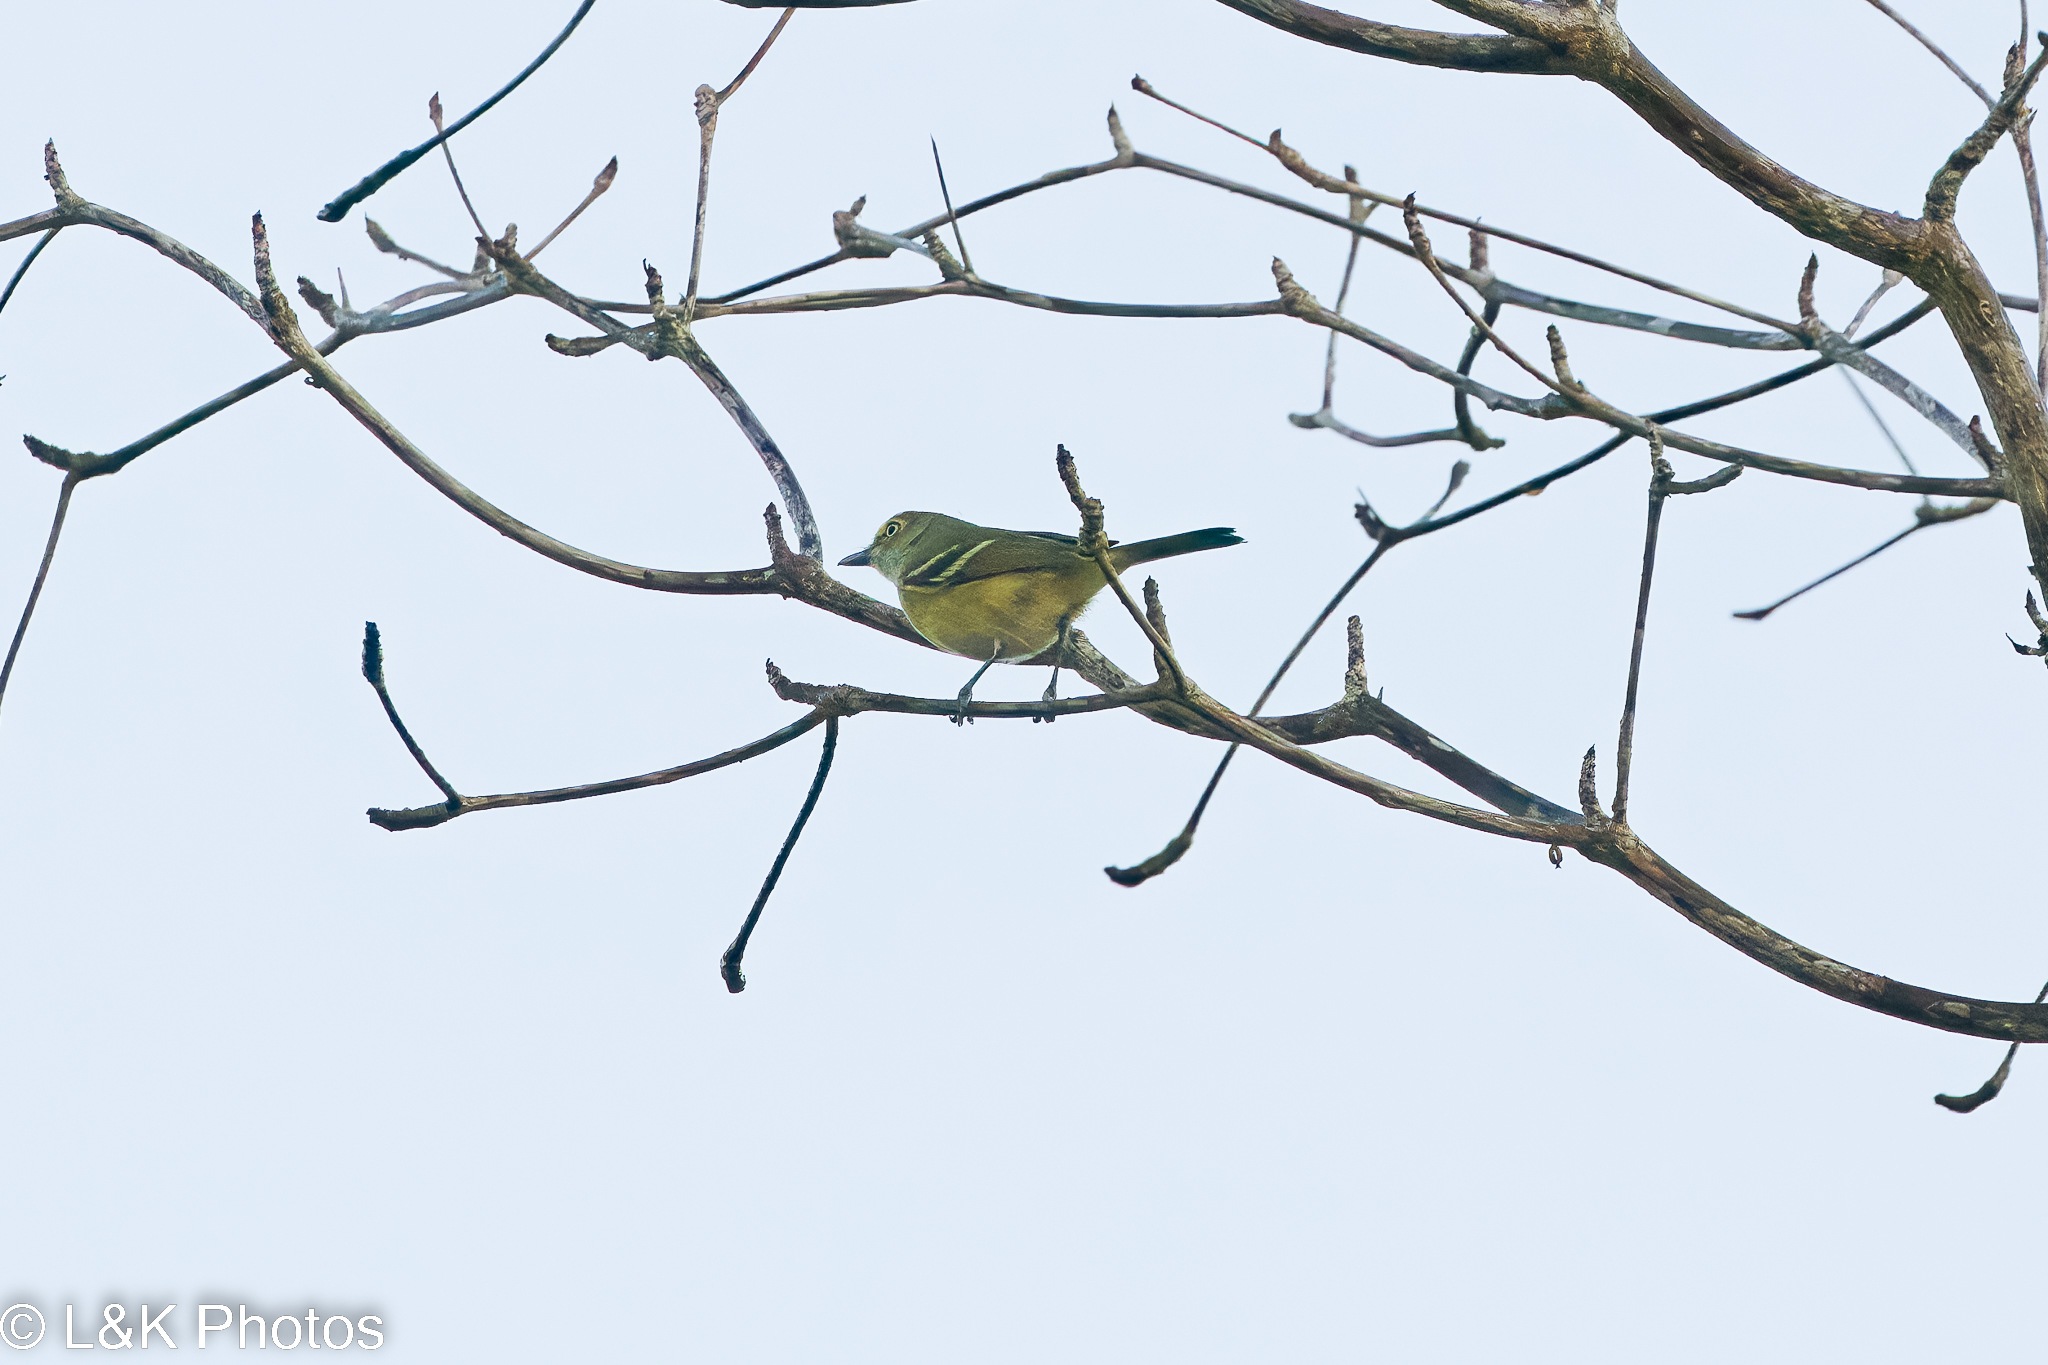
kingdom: Animalia
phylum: Chordata
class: Aves
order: Passeriformes
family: Vireonidae
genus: Vireo
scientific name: Vireo griseus
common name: White-eyed vireo
